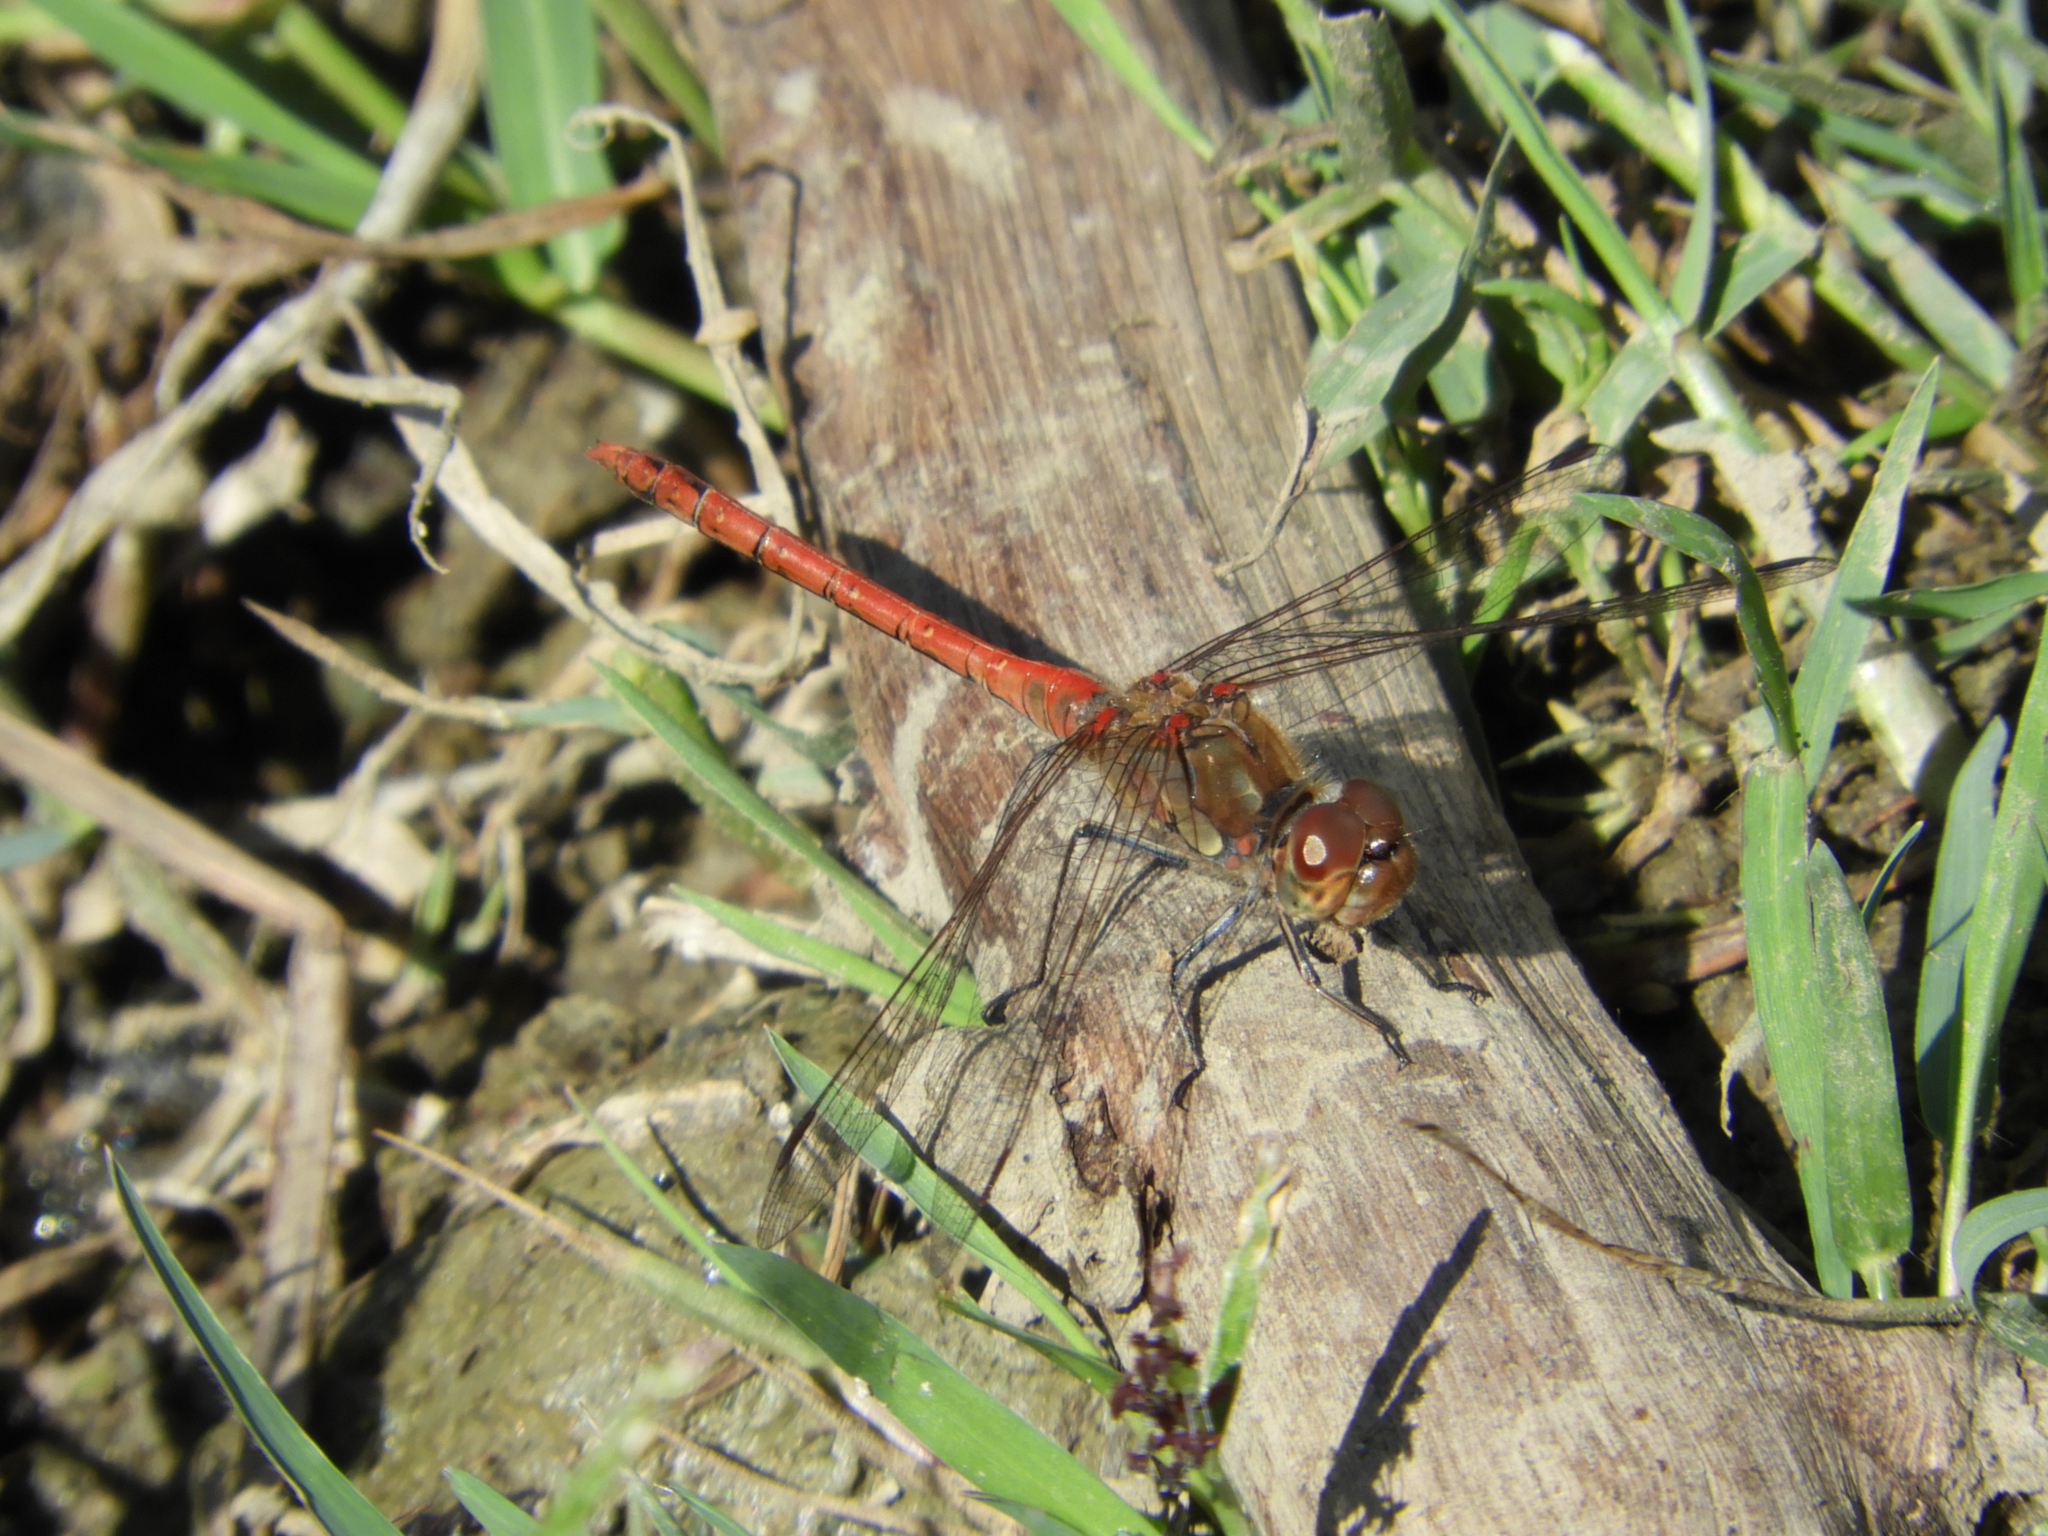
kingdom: Animalia
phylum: Arthropoda
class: Insecta
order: Odonata
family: Libellulidae
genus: Sympetrum
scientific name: Sympetrum striolatum
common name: Common darter
